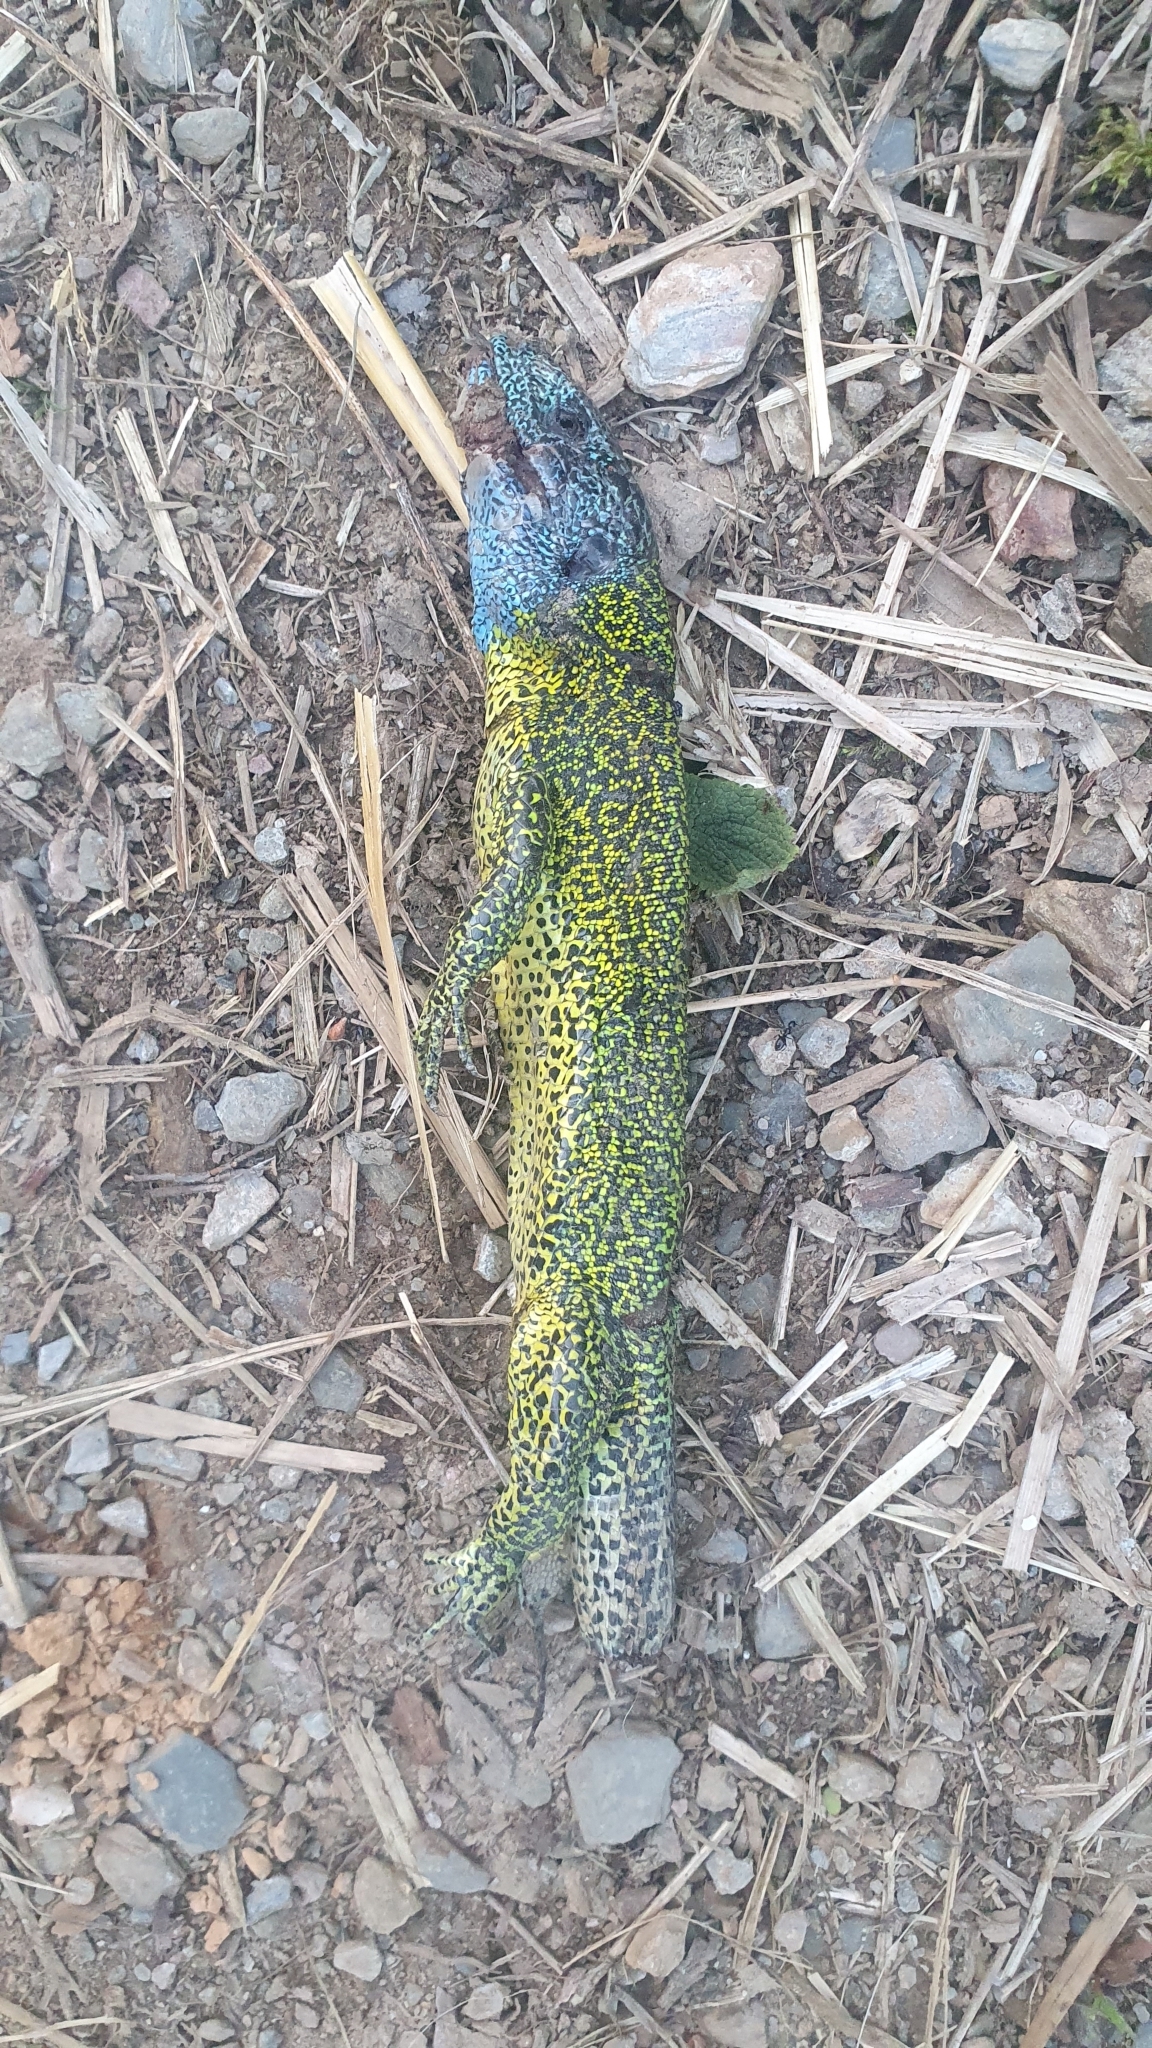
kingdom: Animalia
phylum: Chordata
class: Squamata
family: Lacertidae
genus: Lacerta
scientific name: Lacerta schreiberi
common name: Iberian emerald lizard
